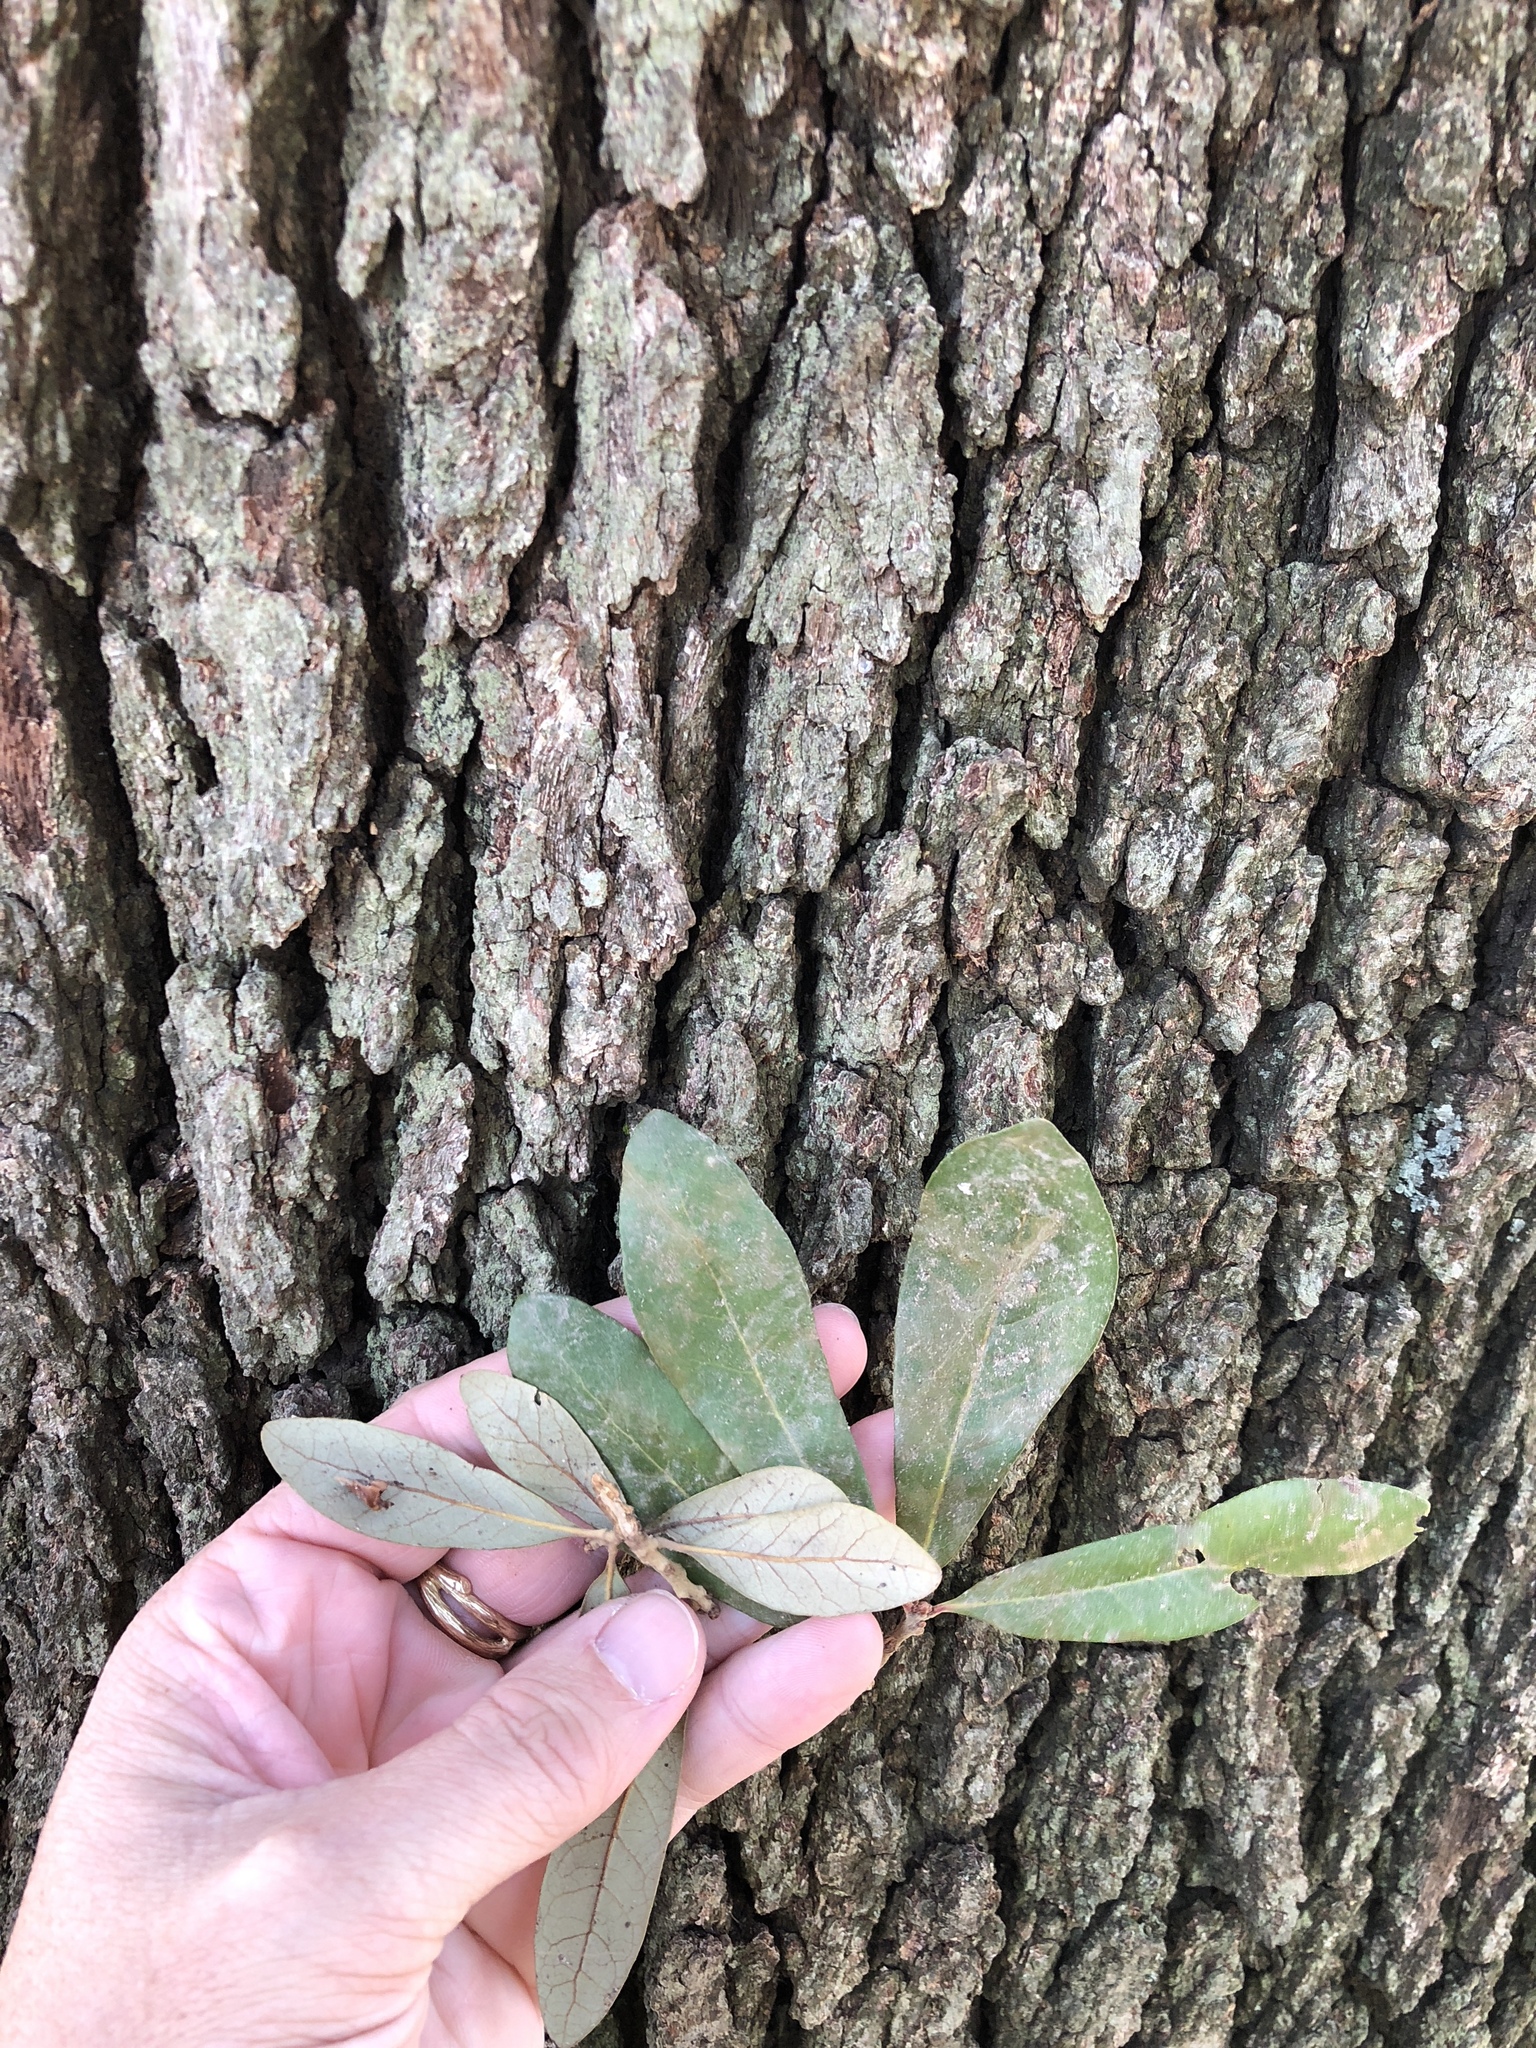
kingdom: Plantae
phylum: Tracheophyta
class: Magnoliopsida
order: Fagales
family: Fagaceae
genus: Quercus
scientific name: Quercus fusiformis
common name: Texas live oak
